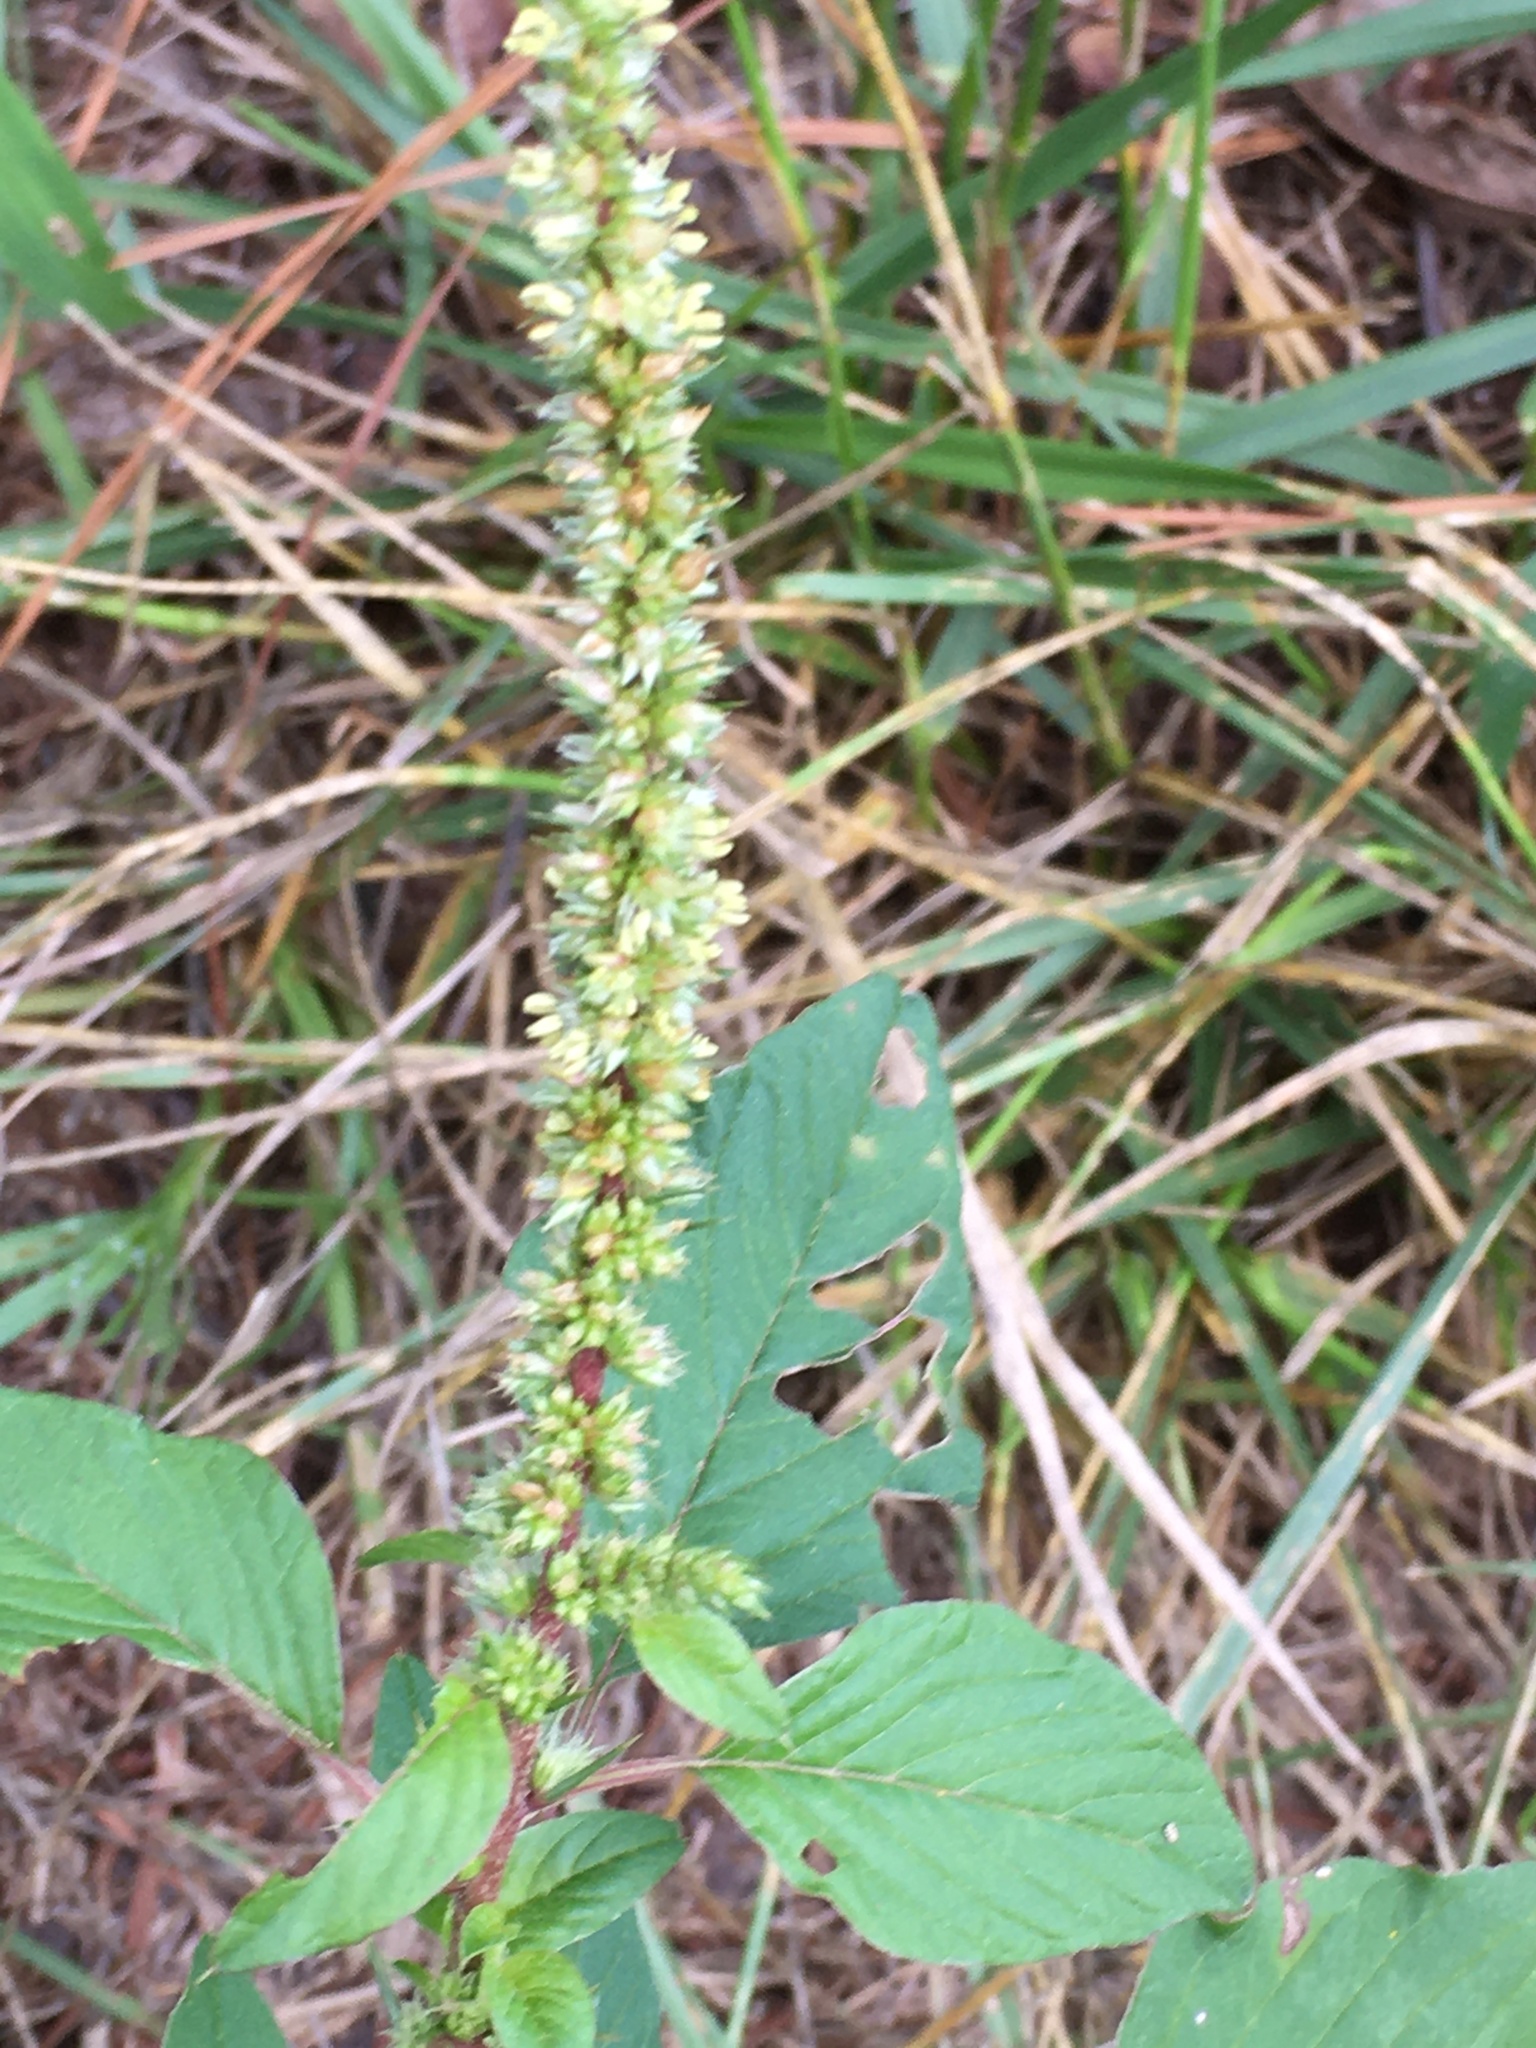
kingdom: Plantae
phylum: Tracheophyta
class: Magnoliopsida
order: Caryophyllales
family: Amaranthaceae
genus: Amaranthus
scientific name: Amaranthus spinosus
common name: Spiny amaranth
